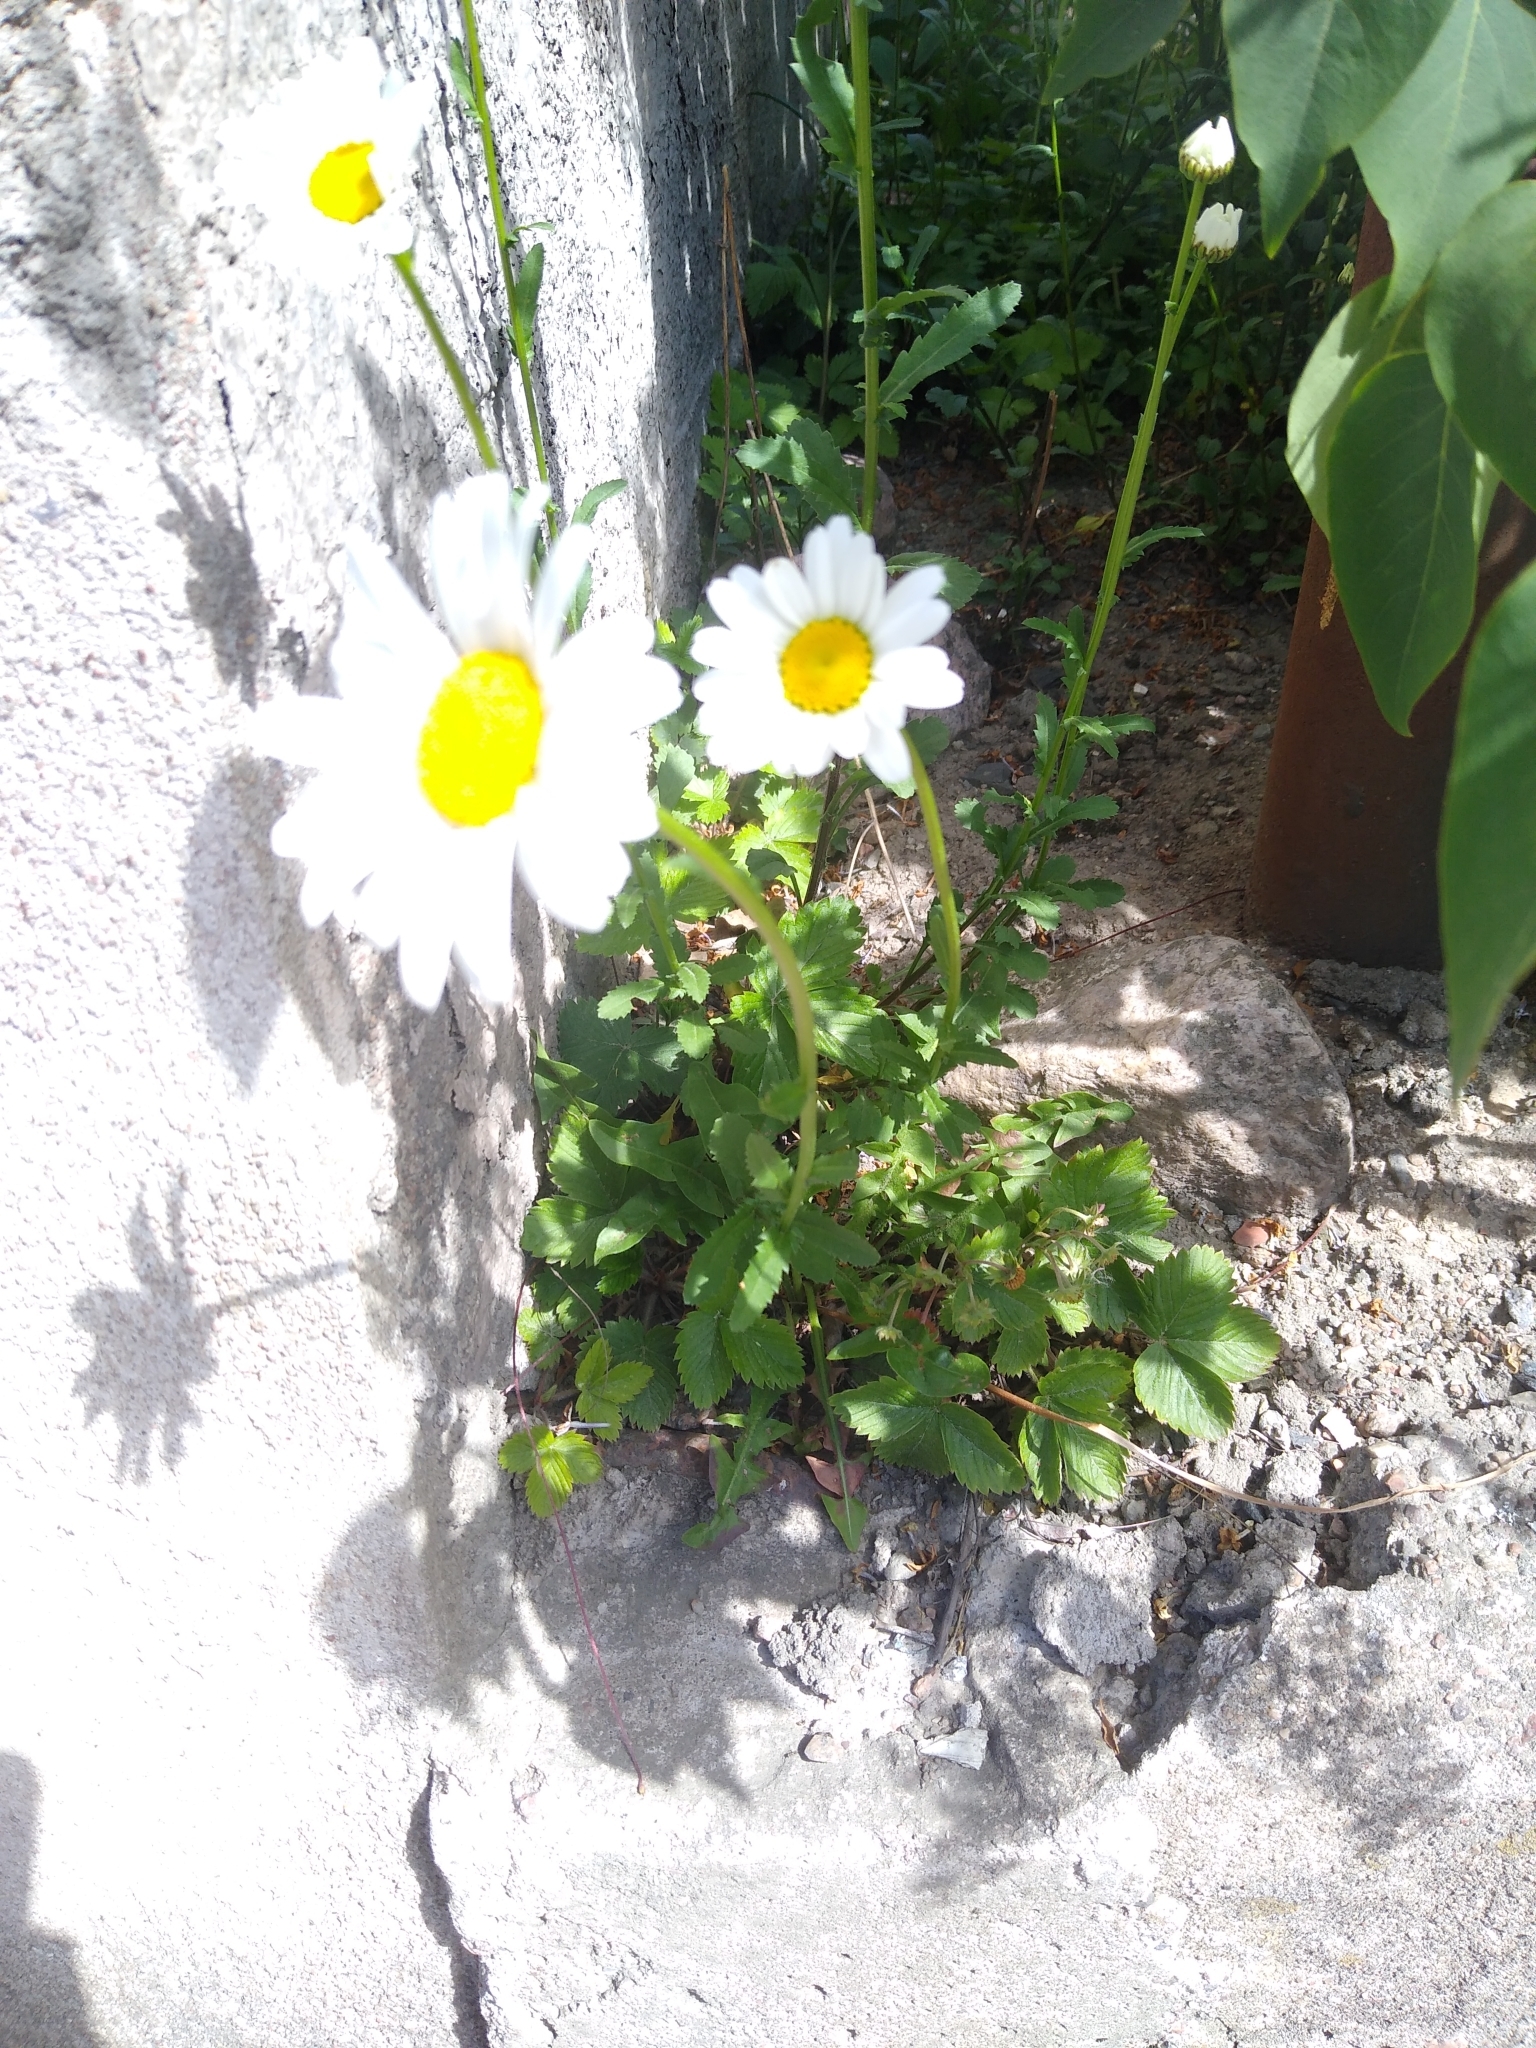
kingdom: Plantae
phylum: Tracheophyta
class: Magnoliopsida
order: Asterales
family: Asteraceae
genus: Leucanthemum
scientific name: Leucanthemum vulgare
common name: Oxeye daisy
